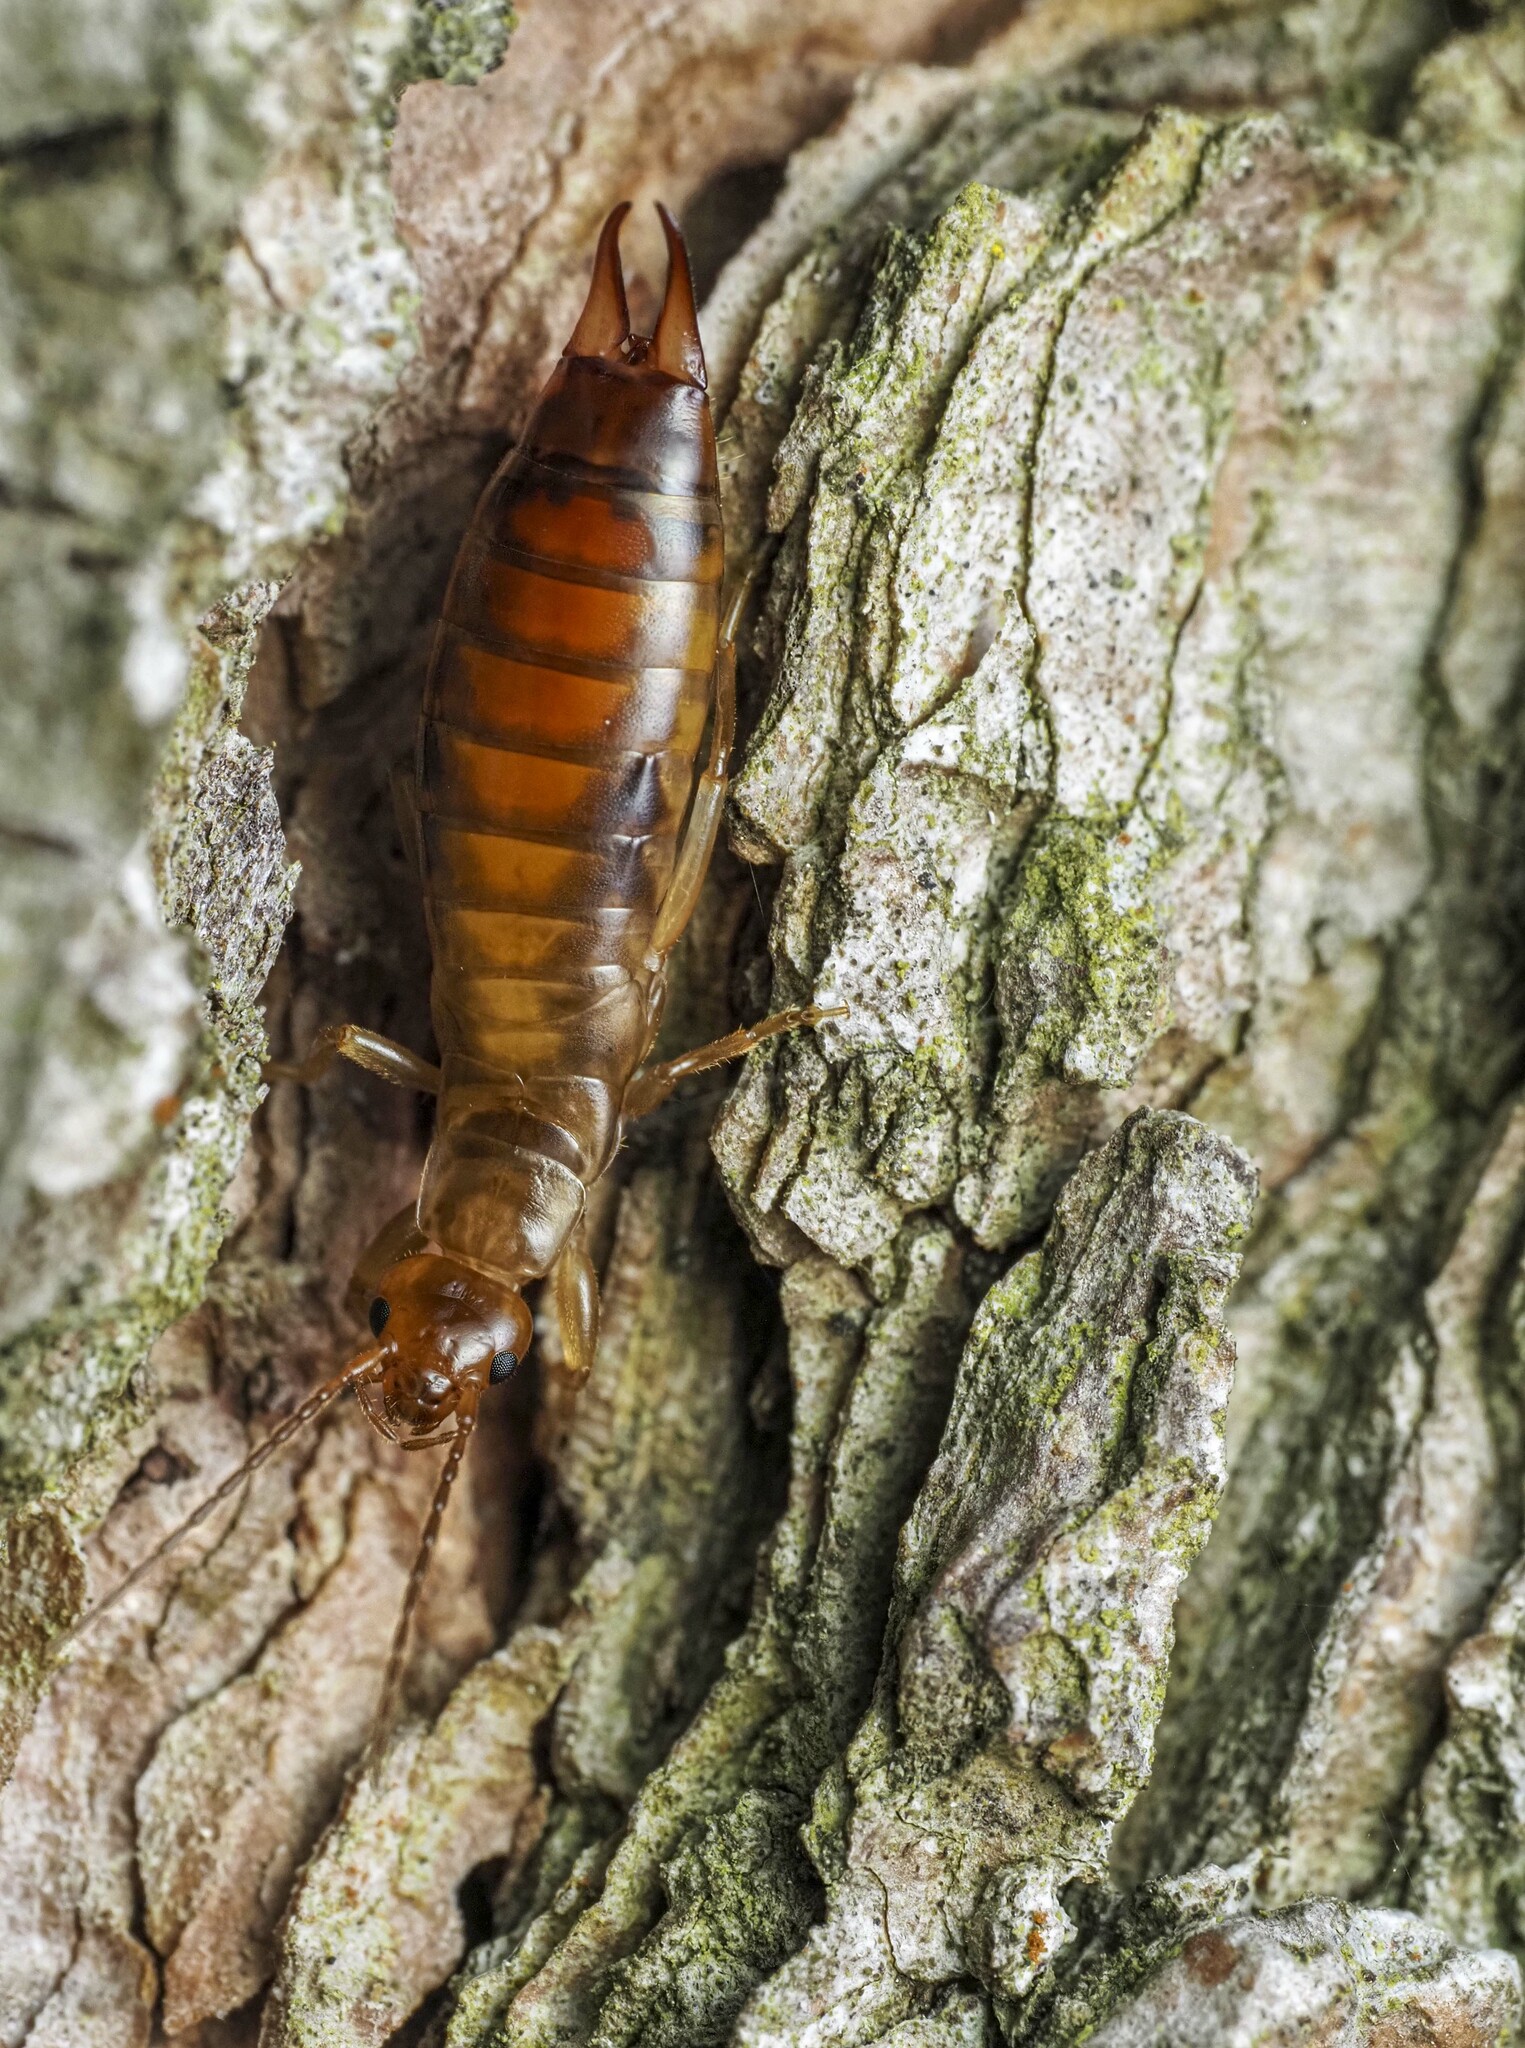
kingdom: Animalia
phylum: Arthropoda
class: Insecta
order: Dermaptera
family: Forficulidae
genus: Chelidurella
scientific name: Chelidurella acanthopygia
